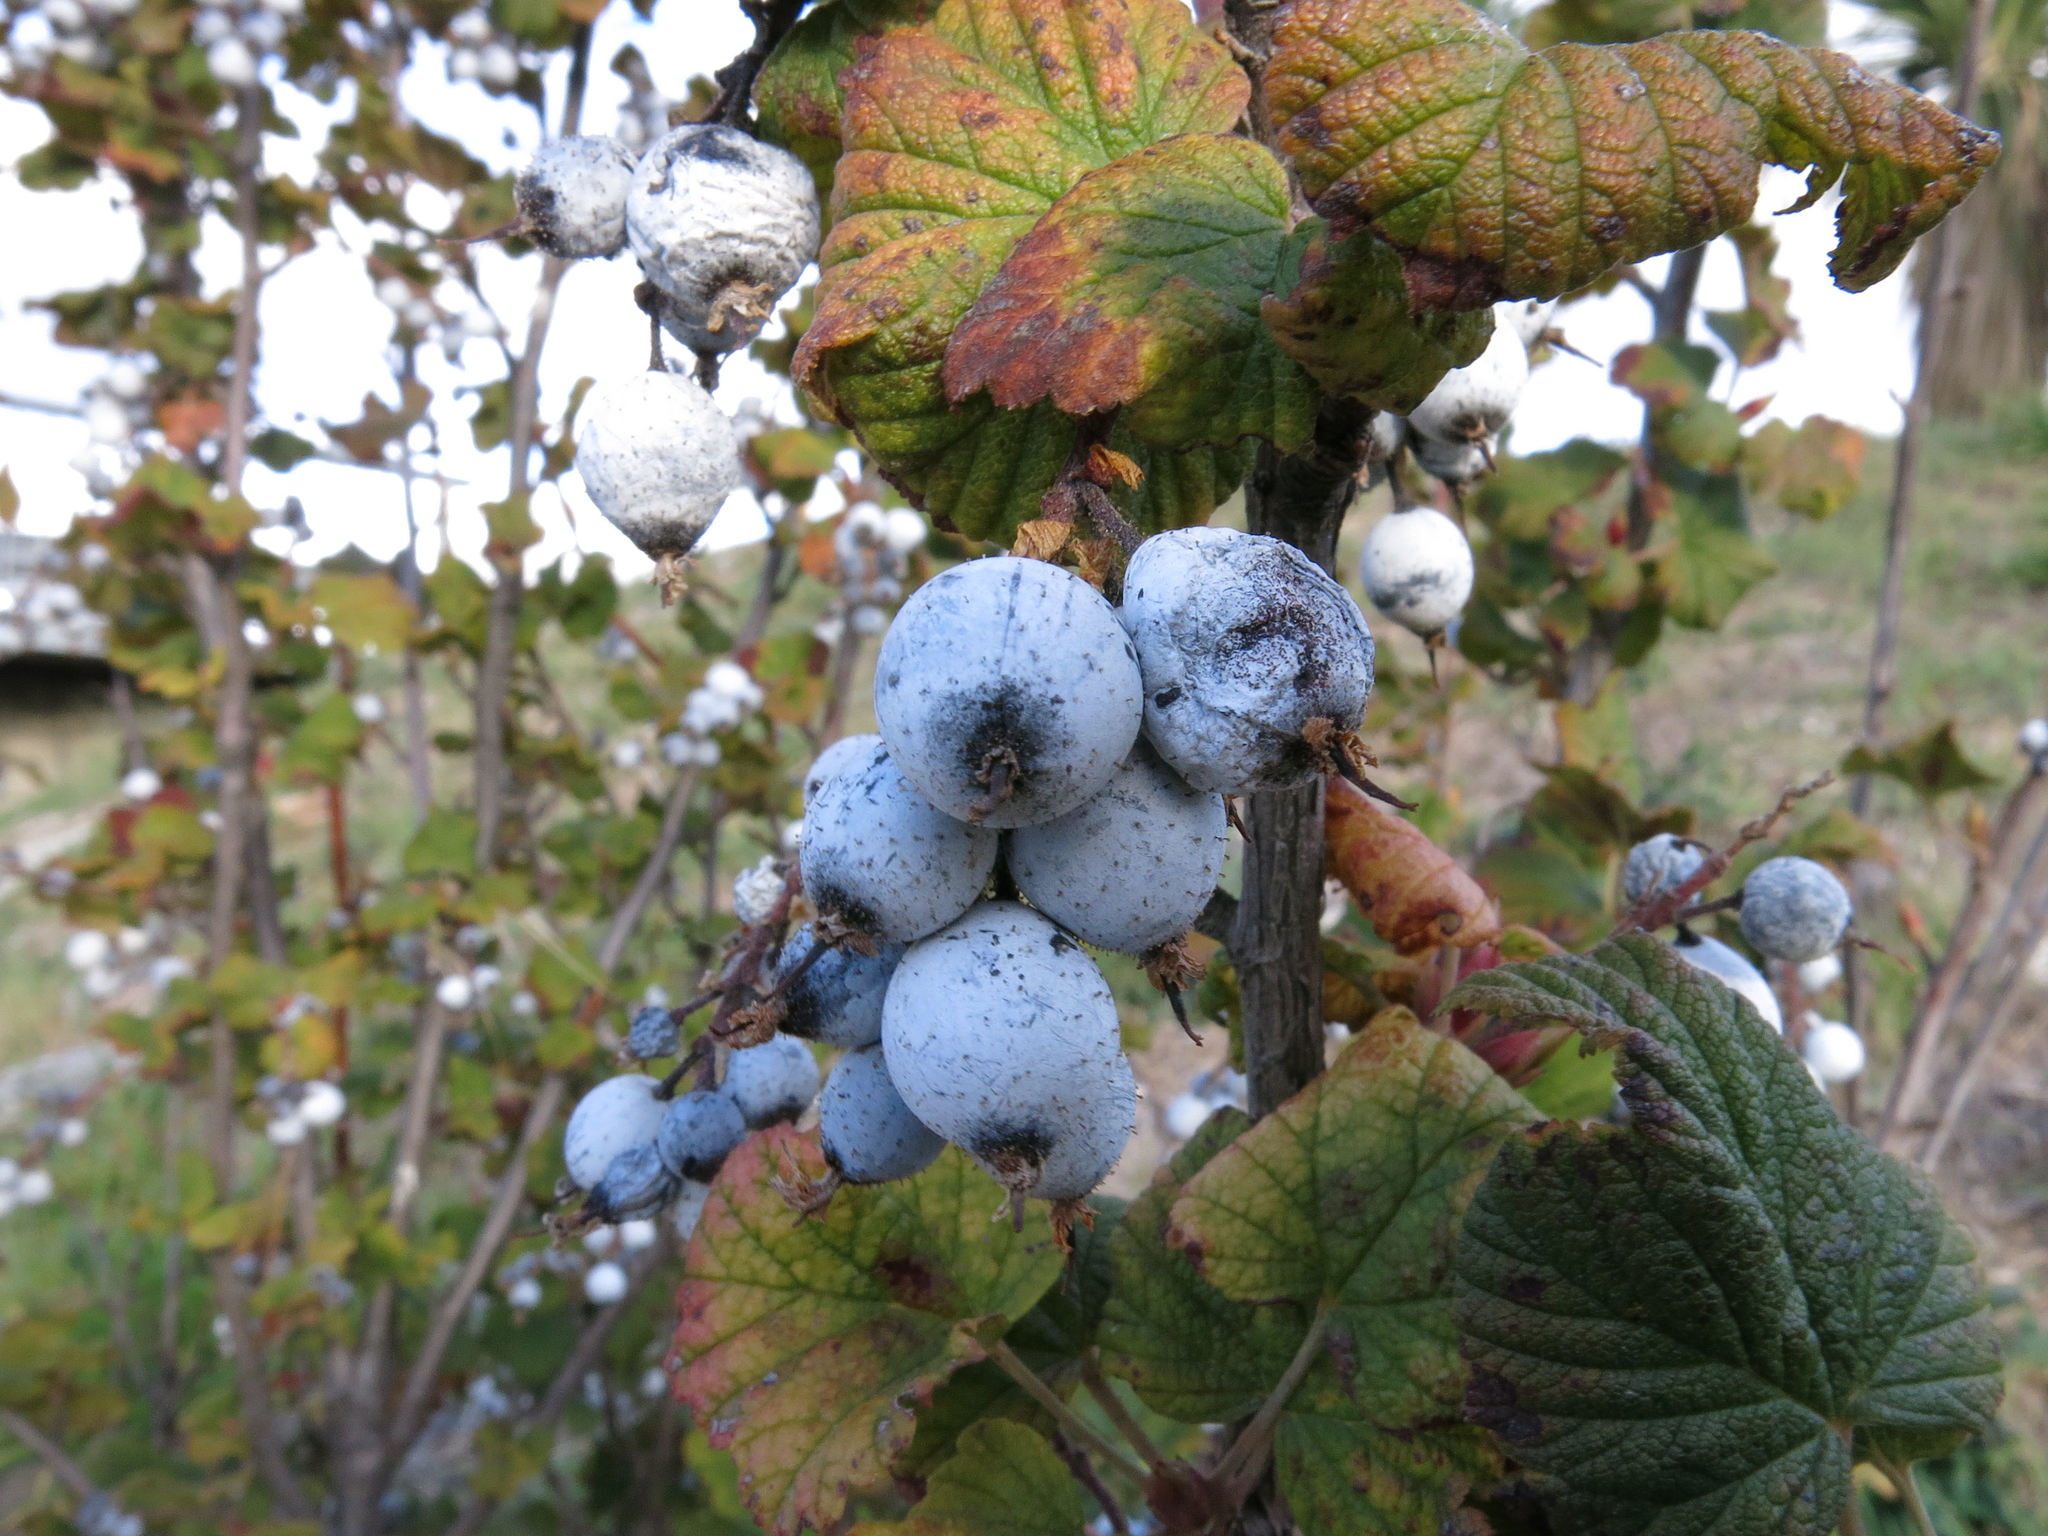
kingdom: Plantae
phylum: Tracheophyta
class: Magnoliopsida
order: Saxifragales
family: Grossulariaceae
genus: Ribes
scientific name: Ribes sanguineum
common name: Flowering currant
